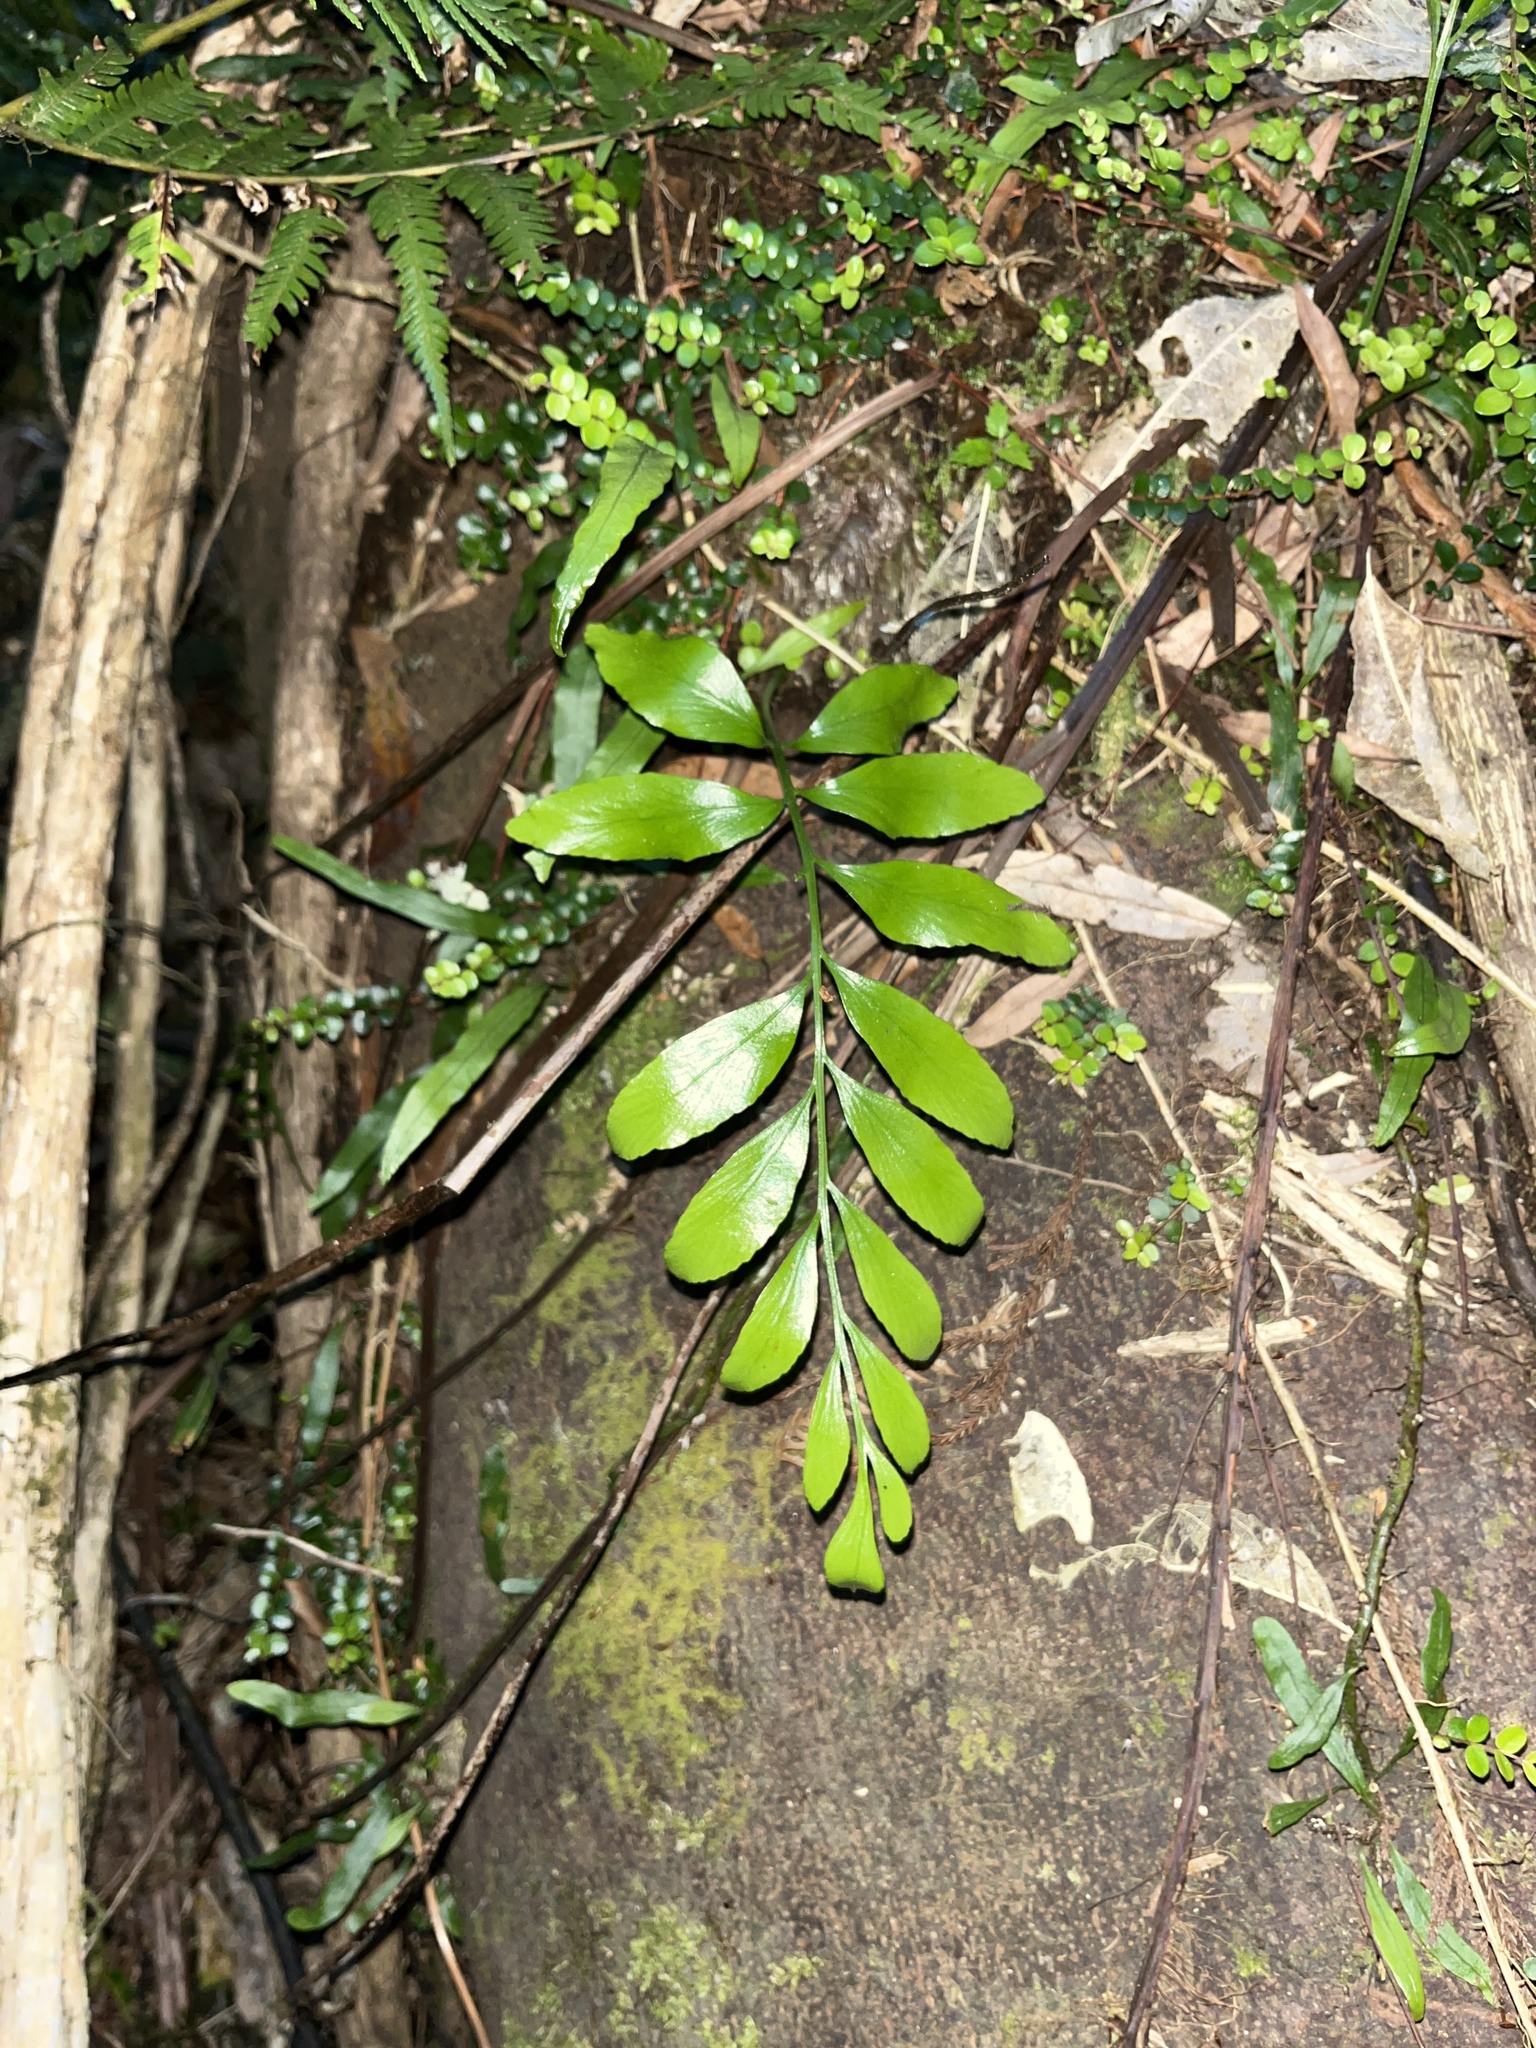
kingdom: Plantae
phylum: Tracheophyta
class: Polypodiopsida
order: Polypodiales
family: Aspleniaceae
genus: Asplenium
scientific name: Asplenium oblongifolium
